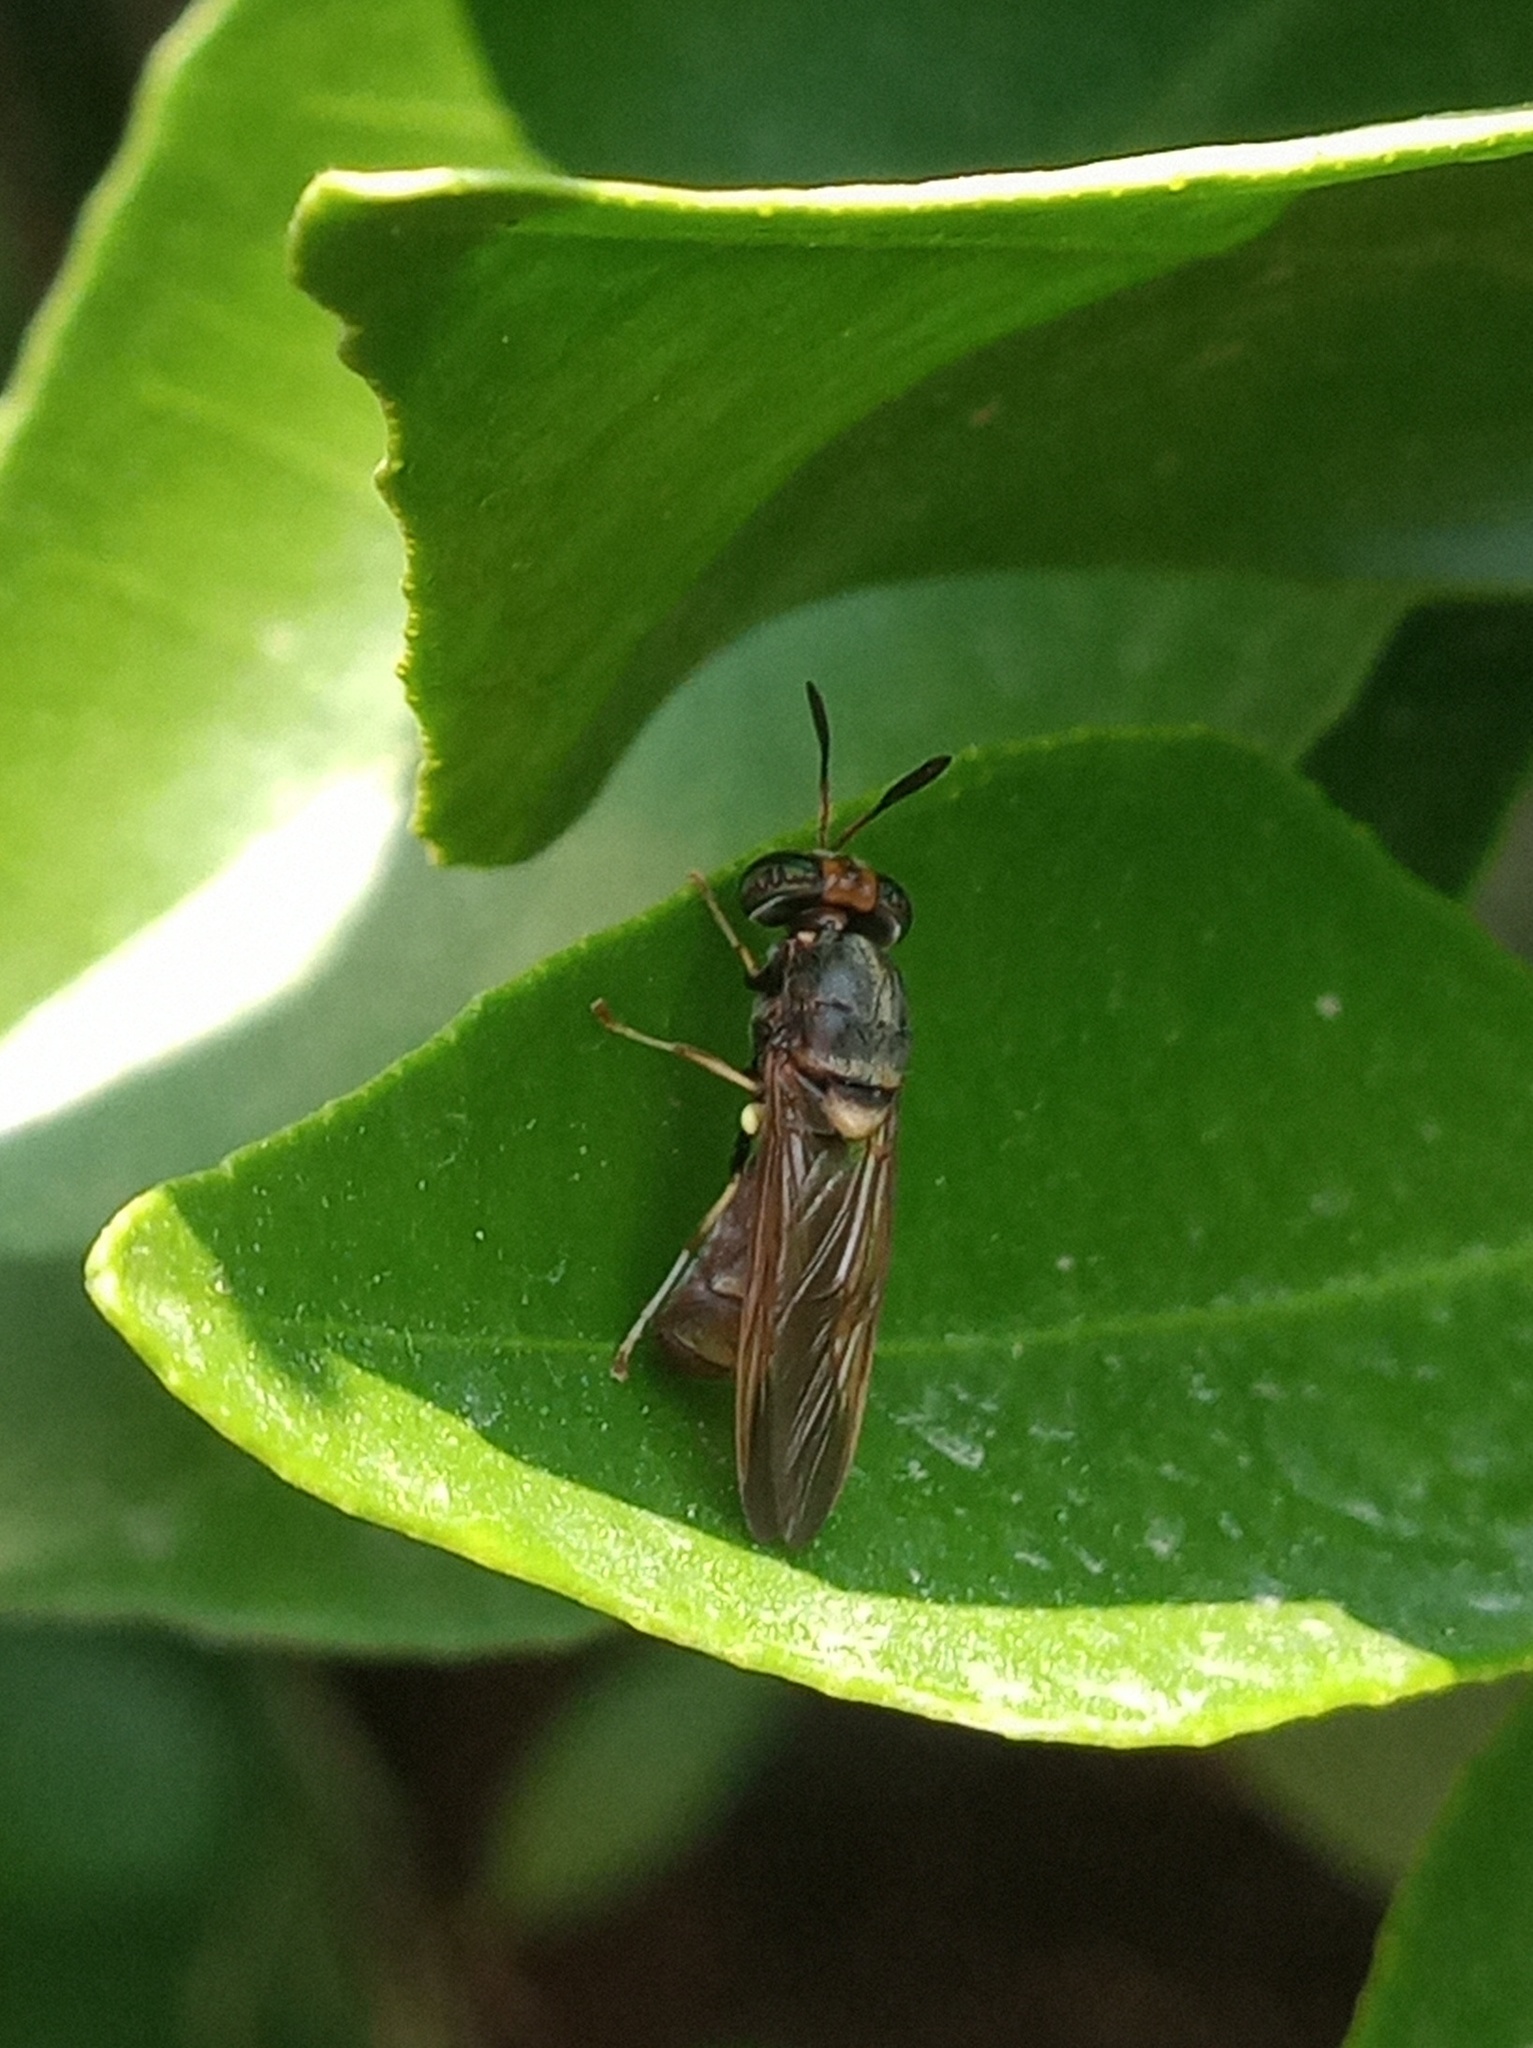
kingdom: Animalia
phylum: Arthropoda
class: Insecta
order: Diptera
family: Stratiomyidae
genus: Hermetia
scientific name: Hermetia chrysopila
